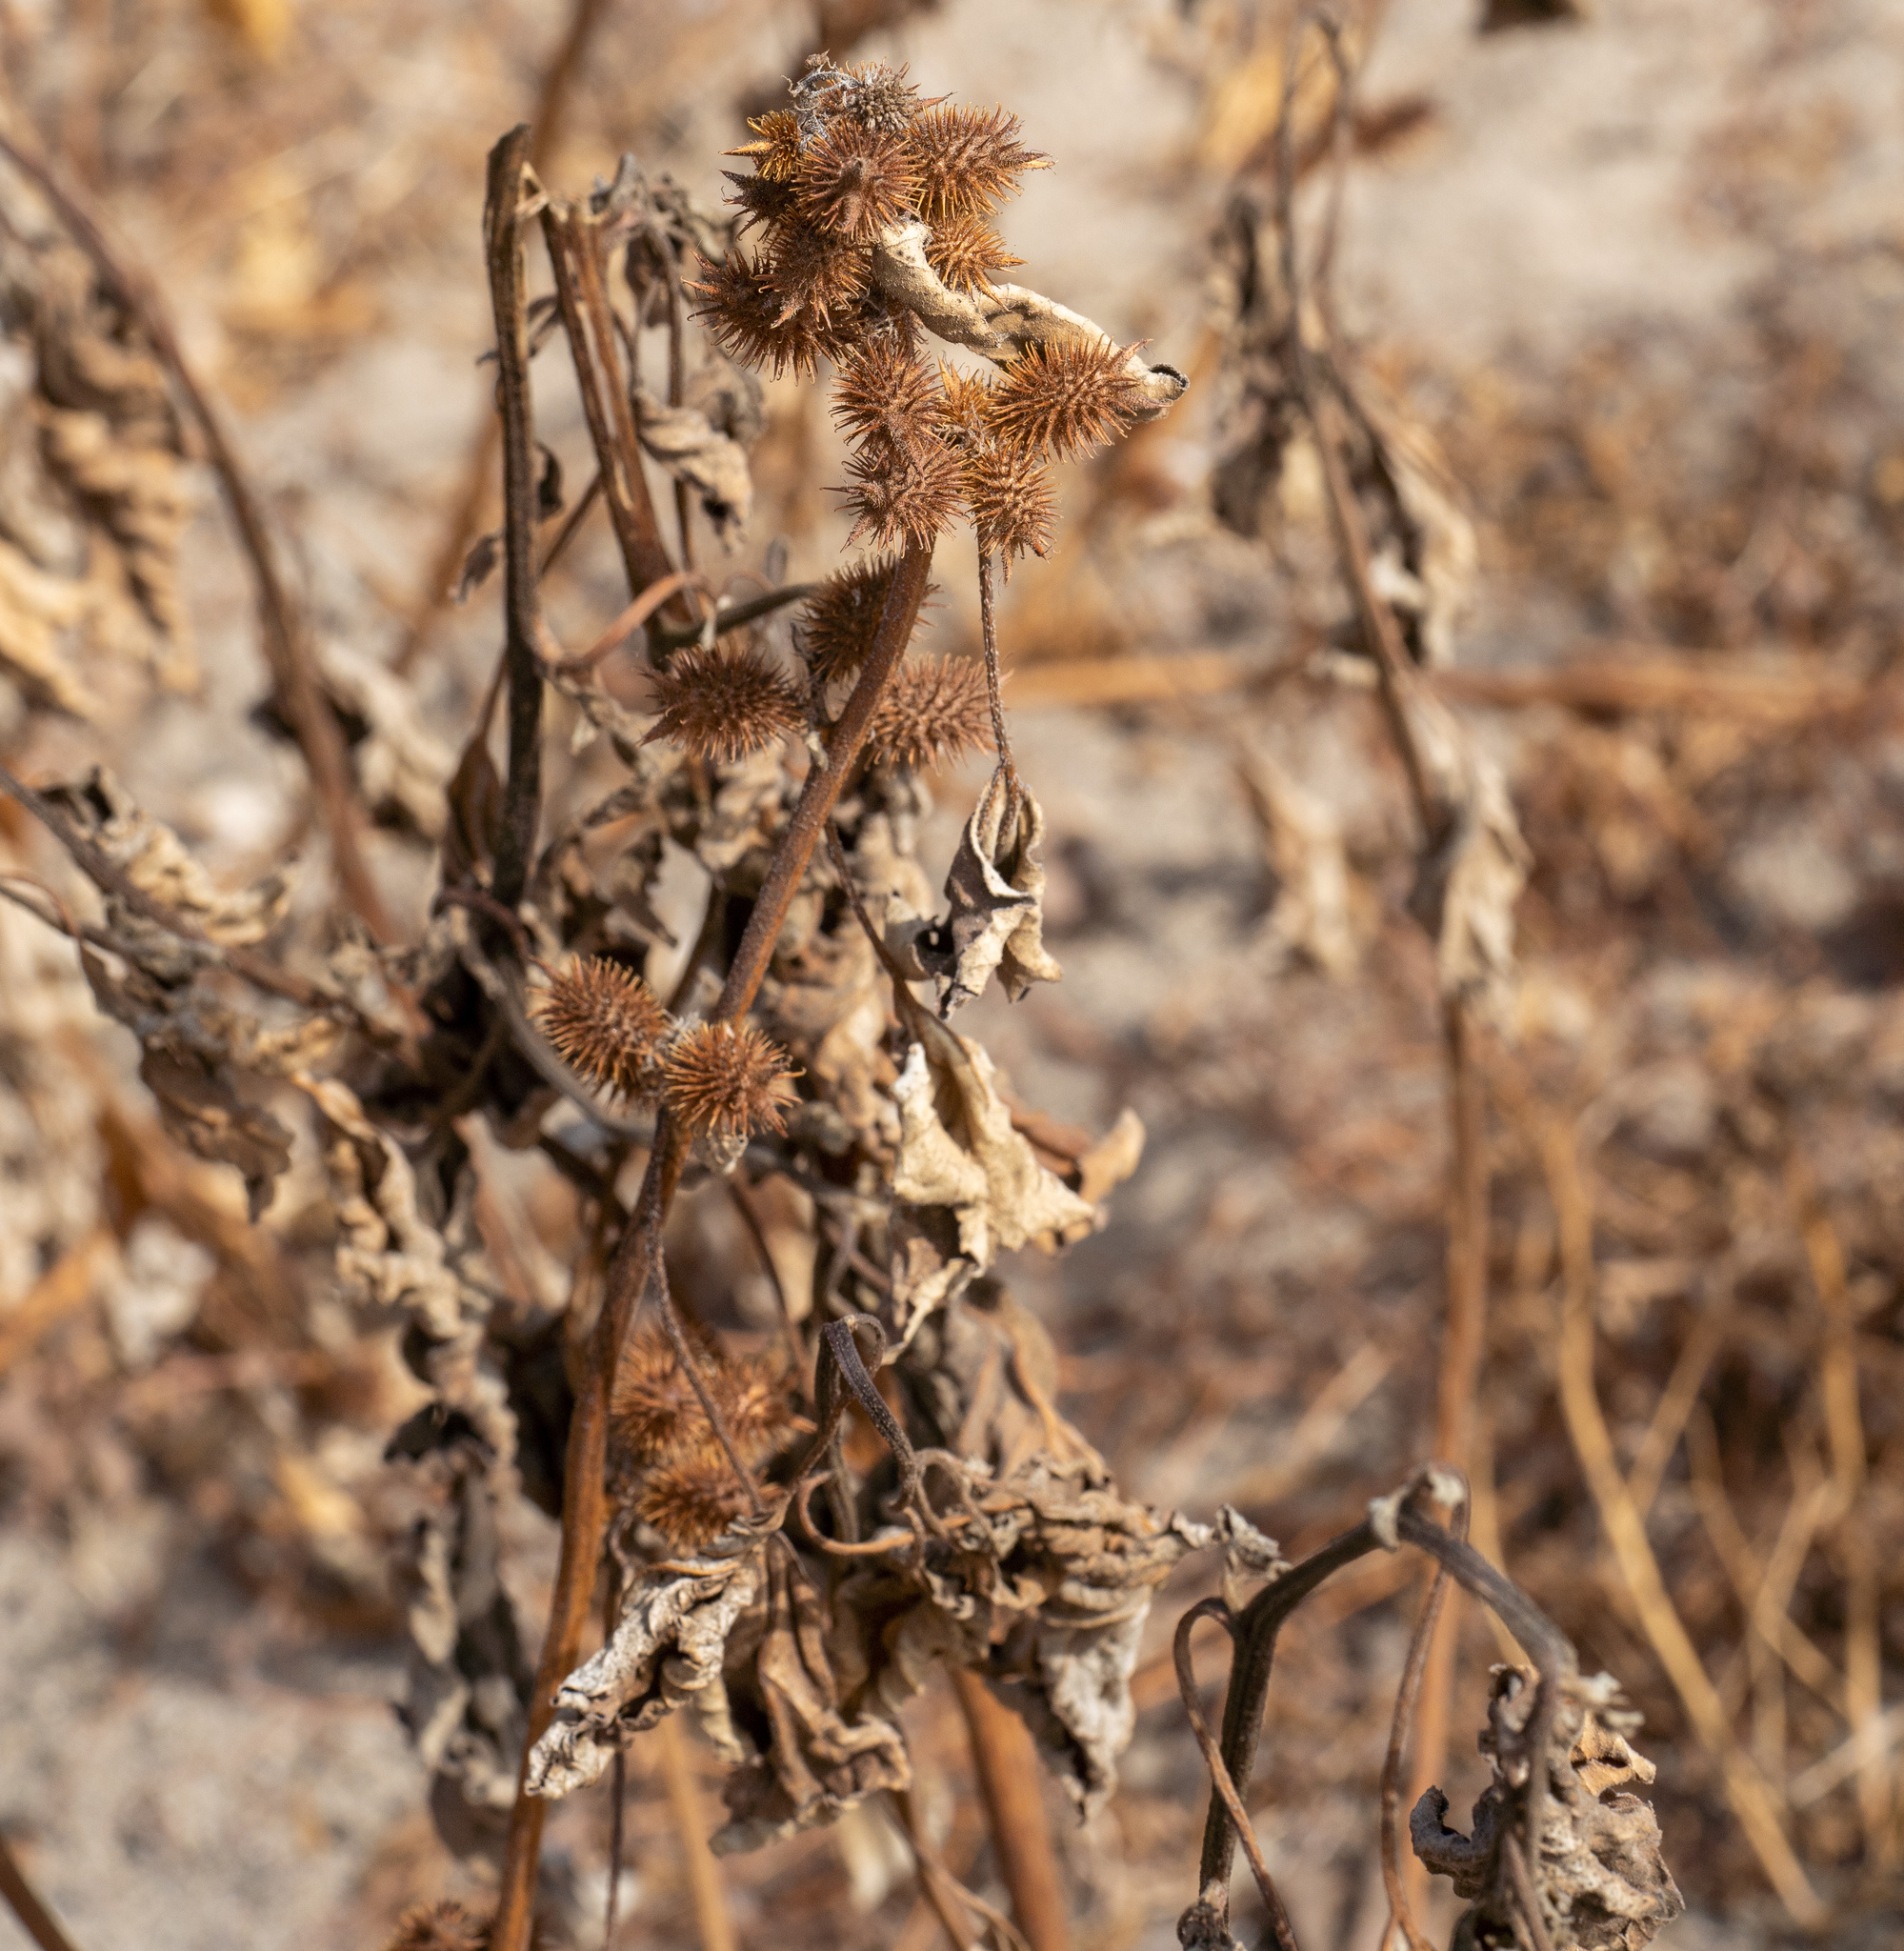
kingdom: Plantae
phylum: Tracheophyta
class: Magnoliopsida
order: Asterales
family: Asteraceae
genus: Xanthium
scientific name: Xanthium strumarium
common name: Rough cocklebur
